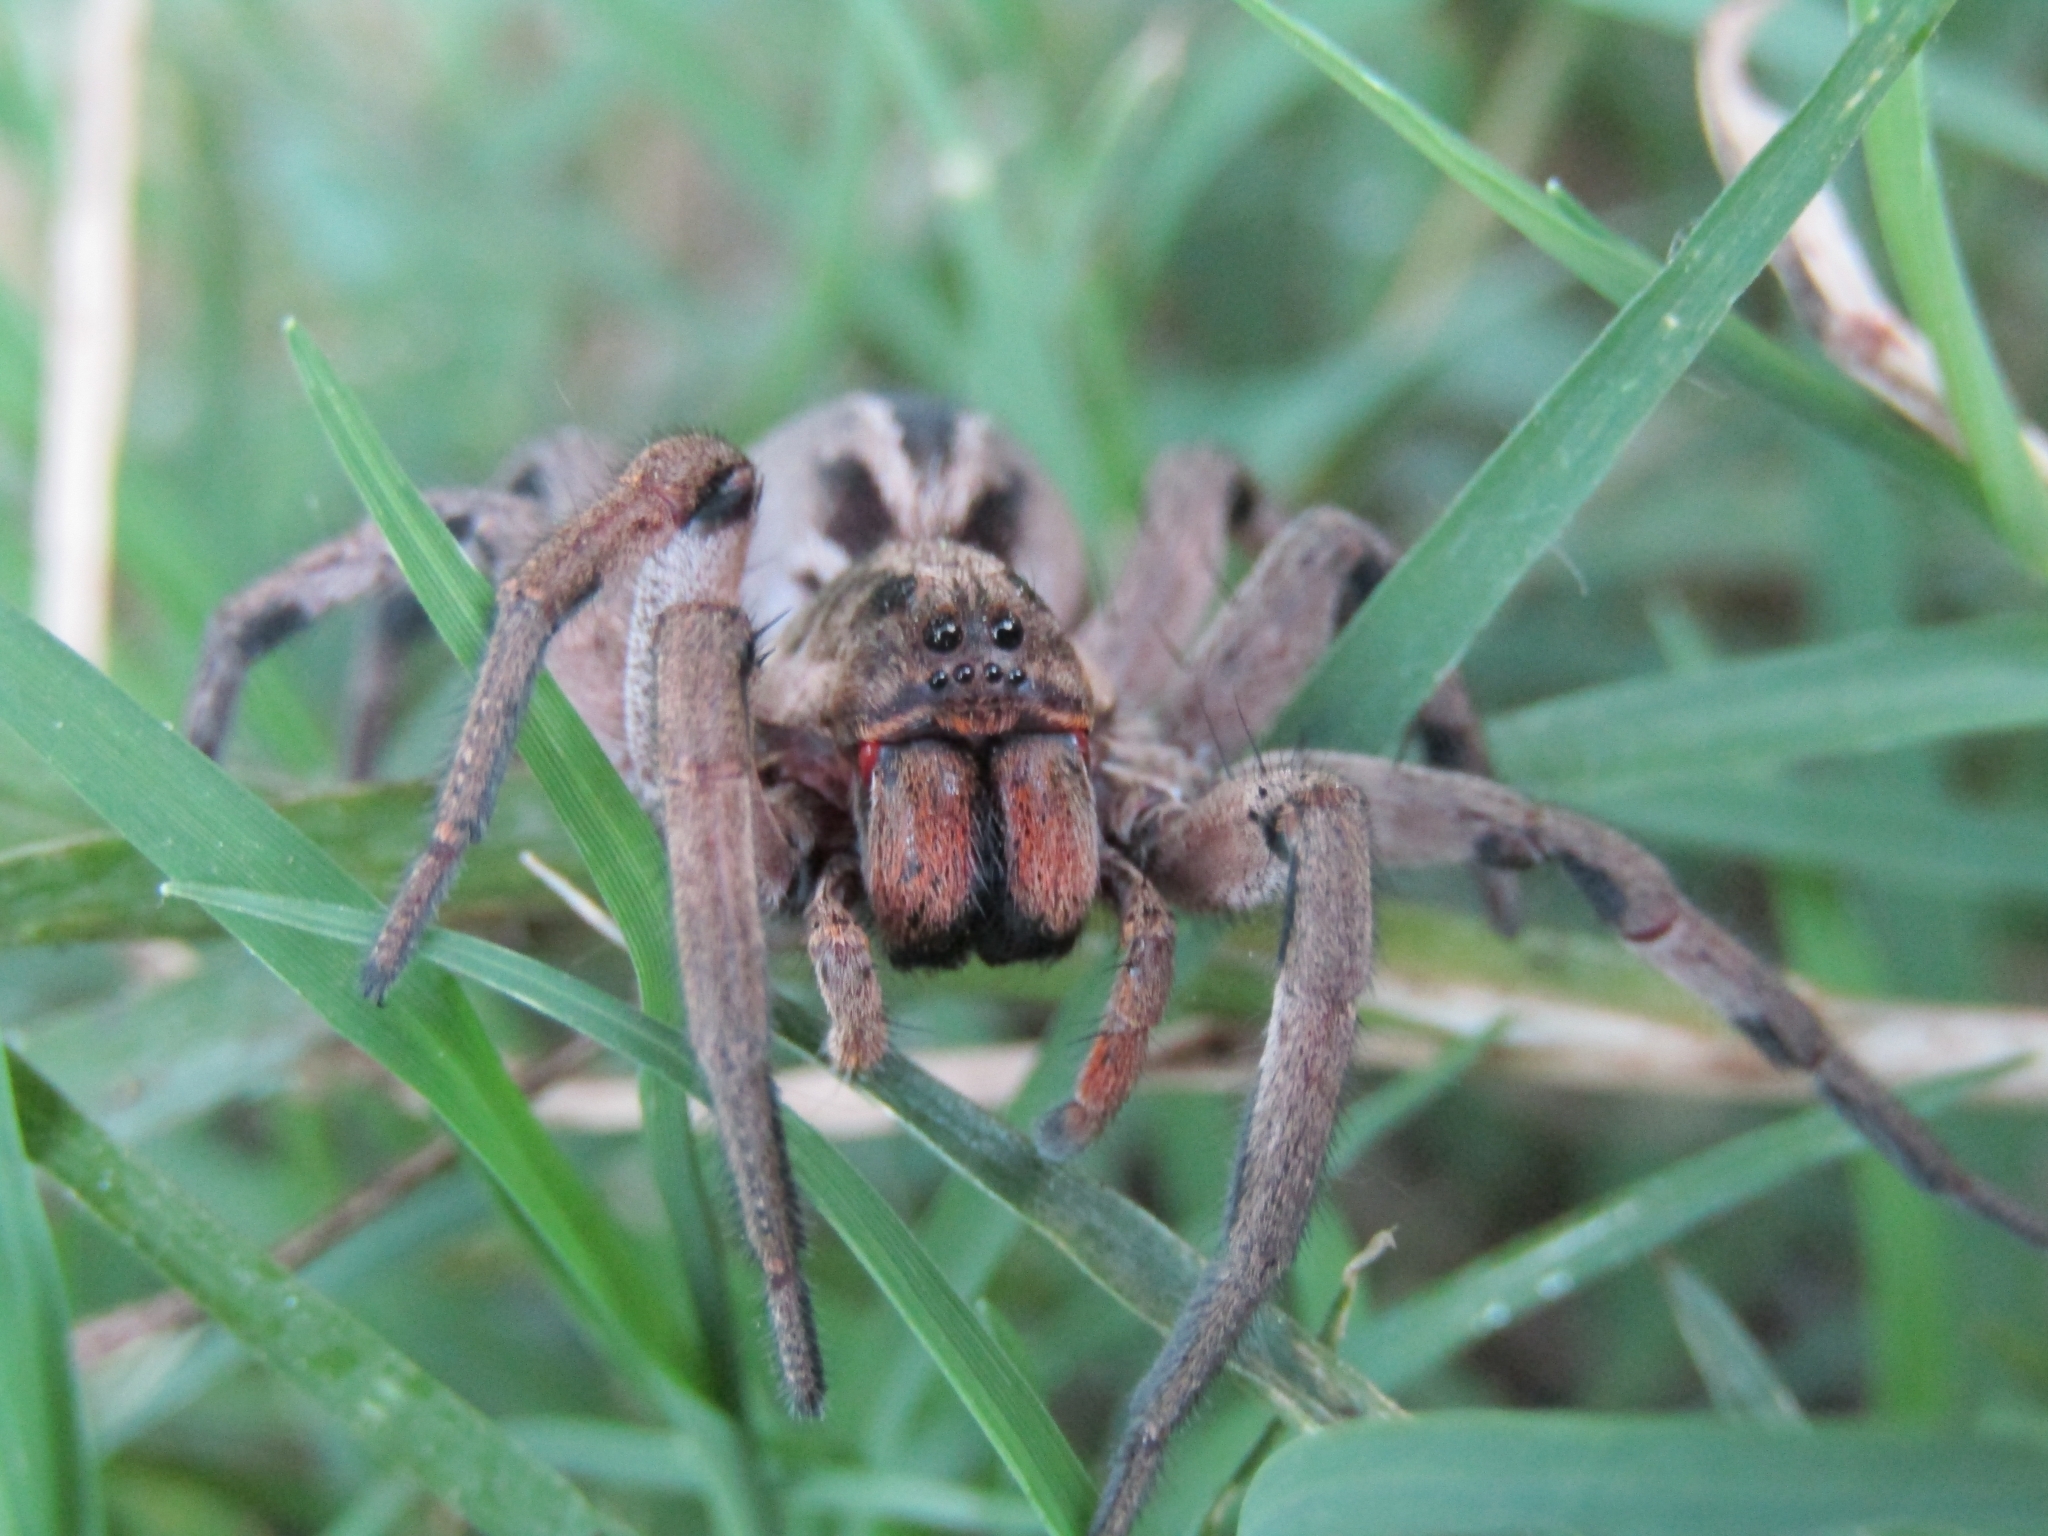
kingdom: Animalia
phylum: Arthropoda
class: Arachnida
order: Araneae
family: Lycosidae
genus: Lycosa
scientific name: Lycosa erythrognatha
